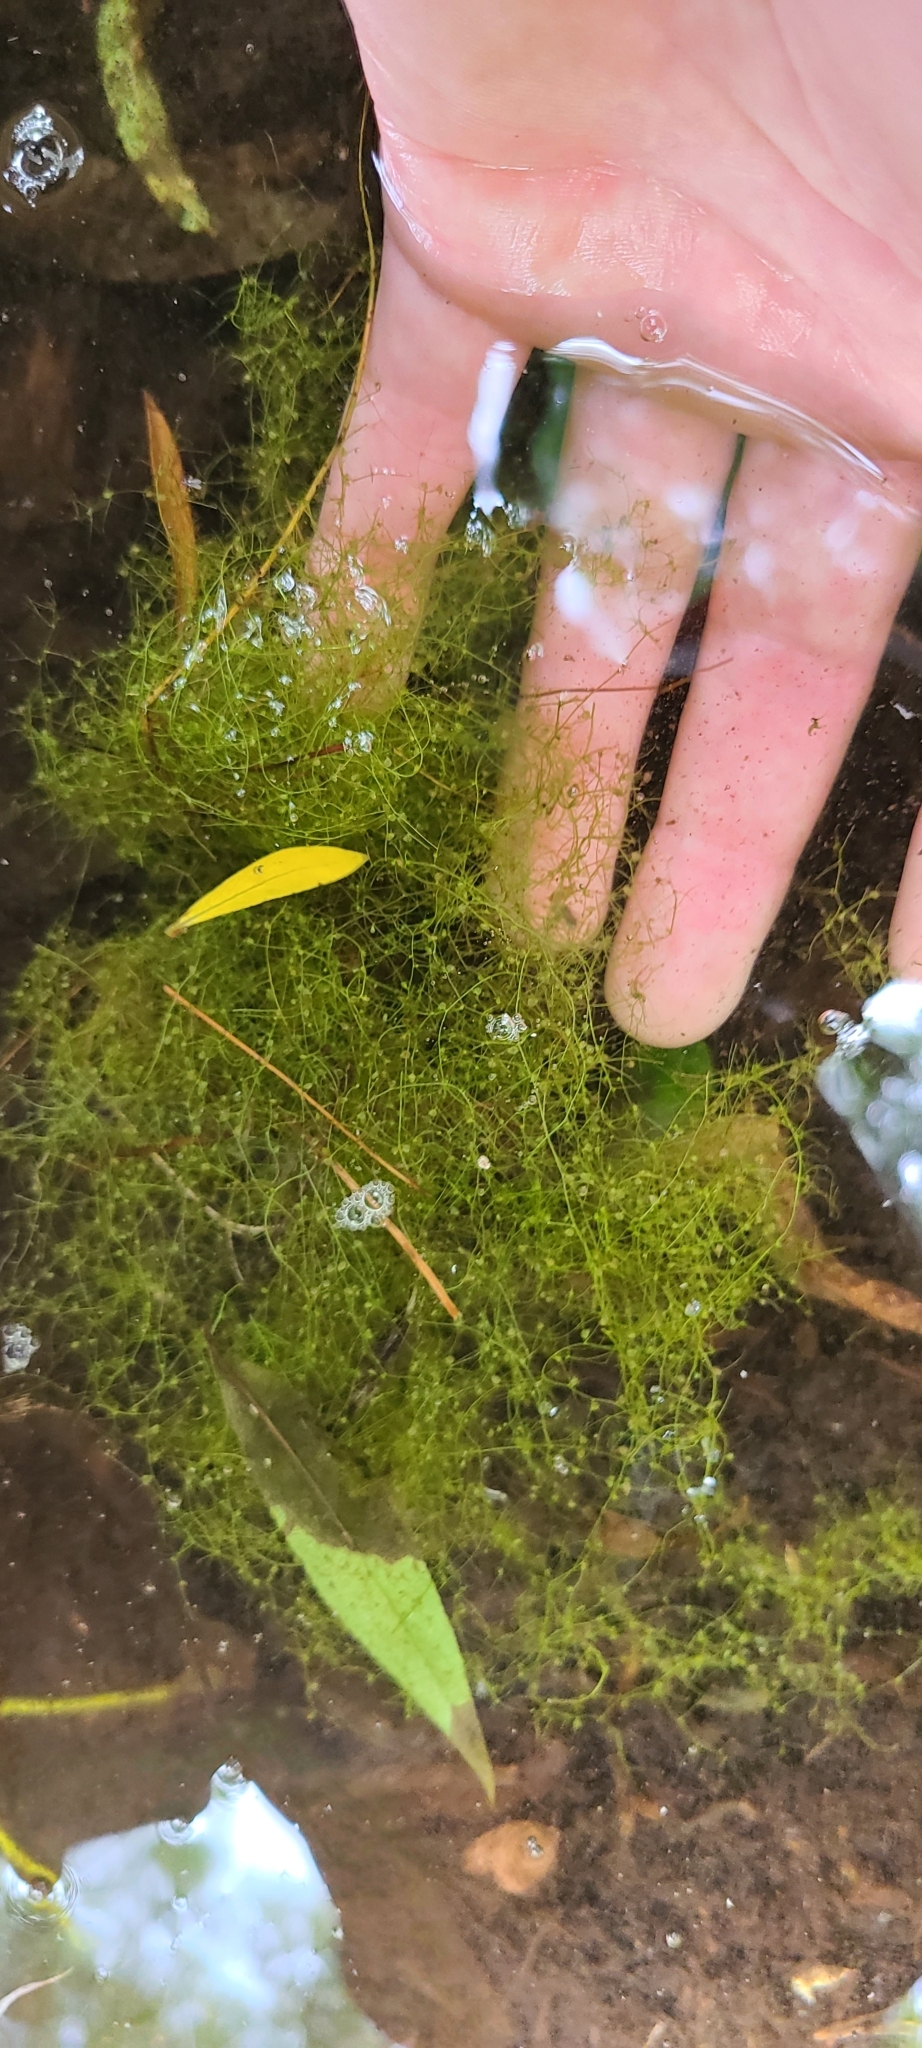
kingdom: Plantae
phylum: Tracheophyta
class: Magnoliopsida
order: Lamiales
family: Lentibulariaceae
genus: Utricularia
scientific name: Utricularia gibba
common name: Humped bladderwort
